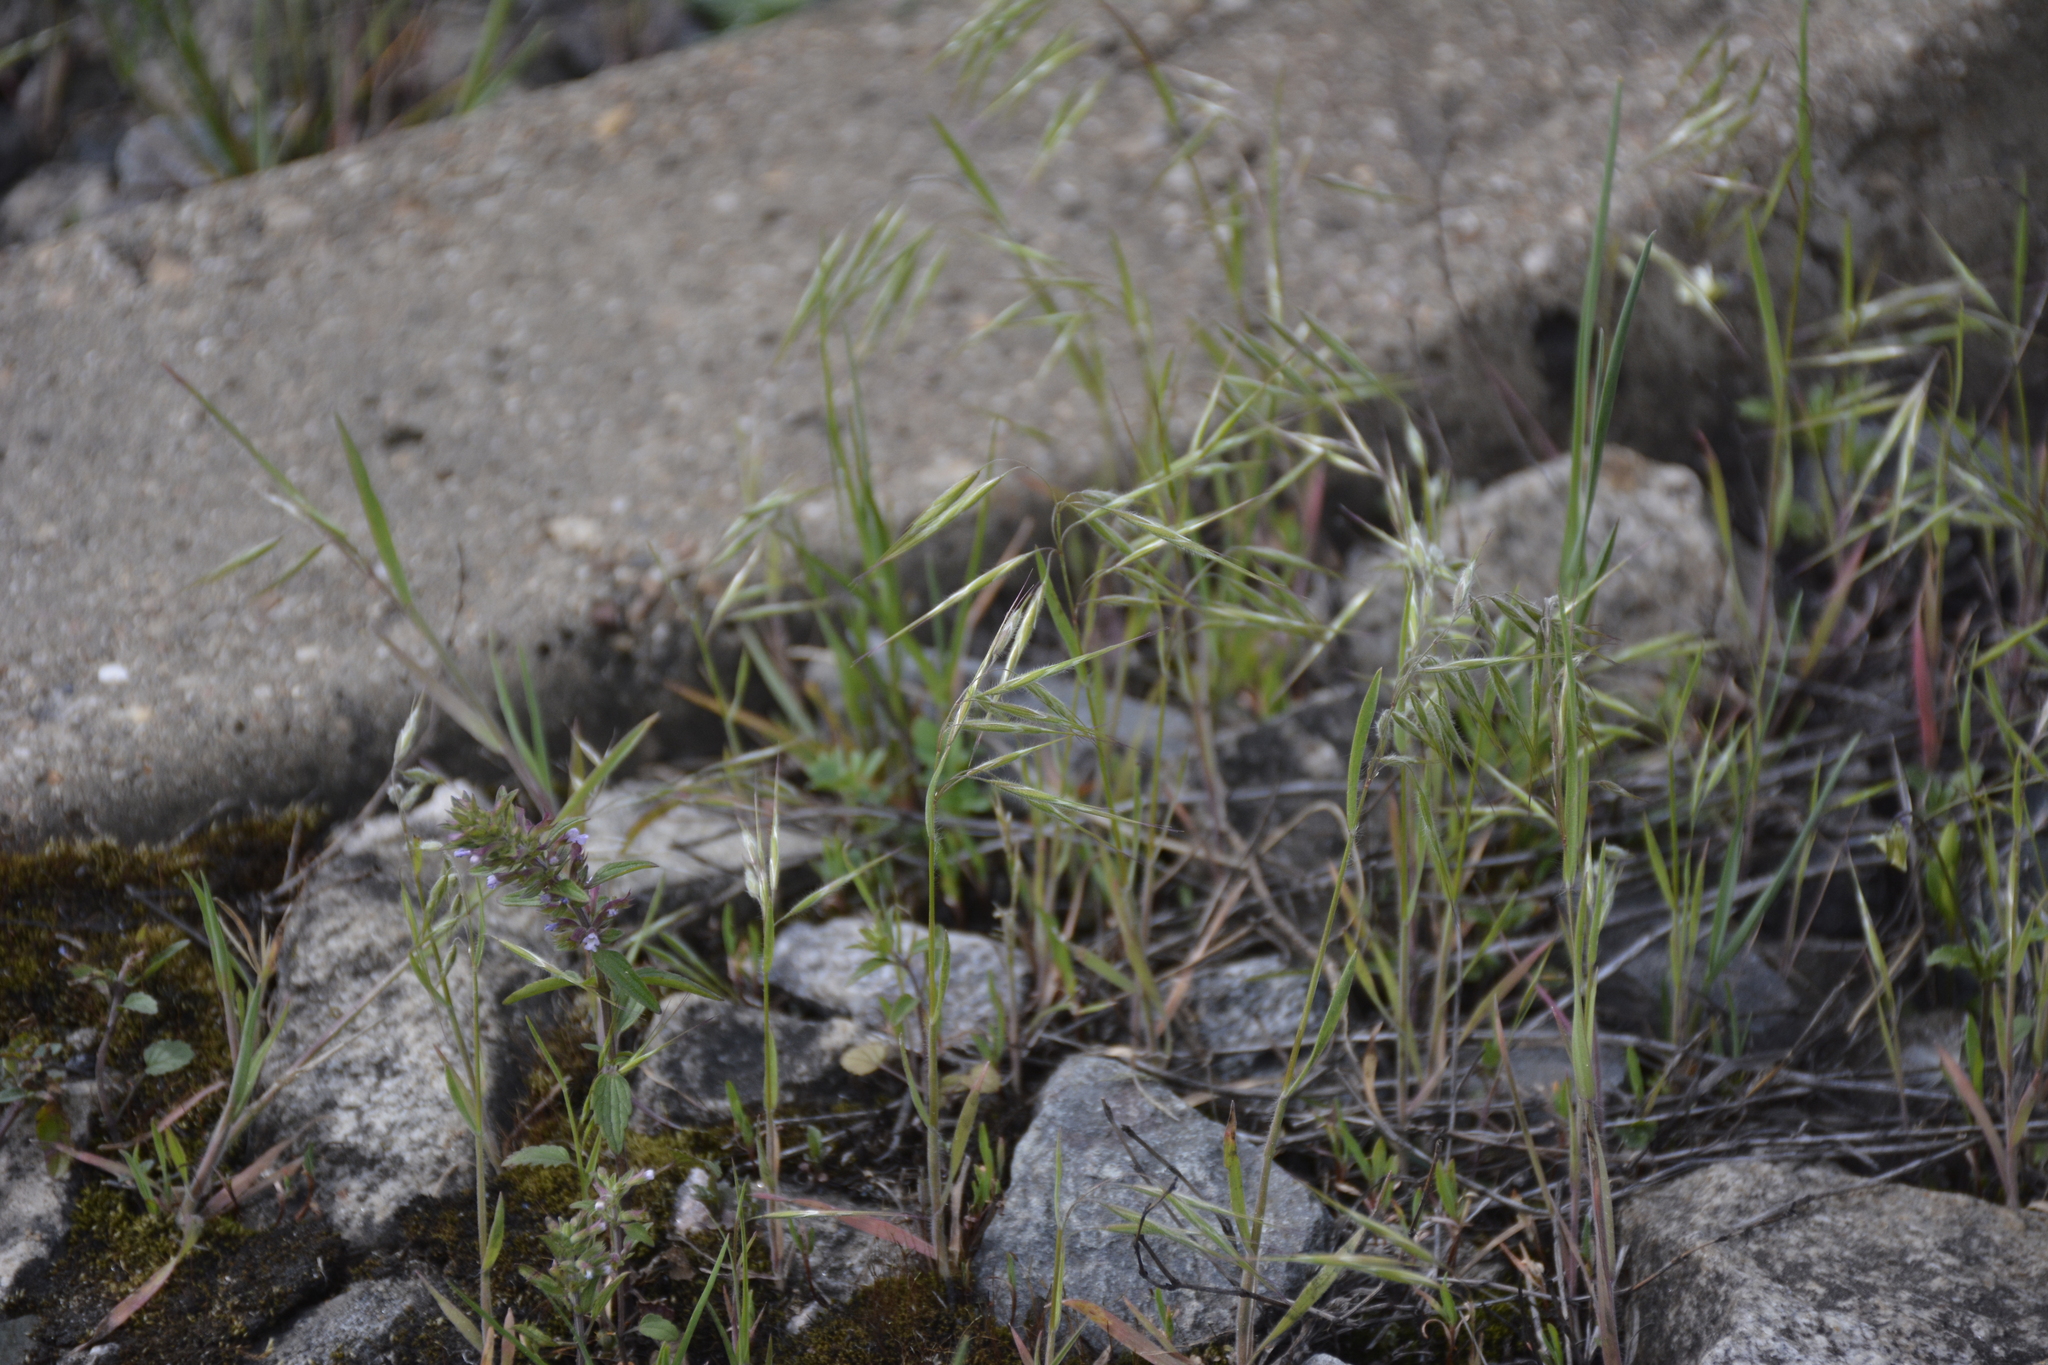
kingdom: Plantae
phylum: Tracheophyta
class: Liliopsida
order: Poales
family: Poaceae
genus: Bromus
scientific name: Bromus tectorum
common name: Cheatgrass
